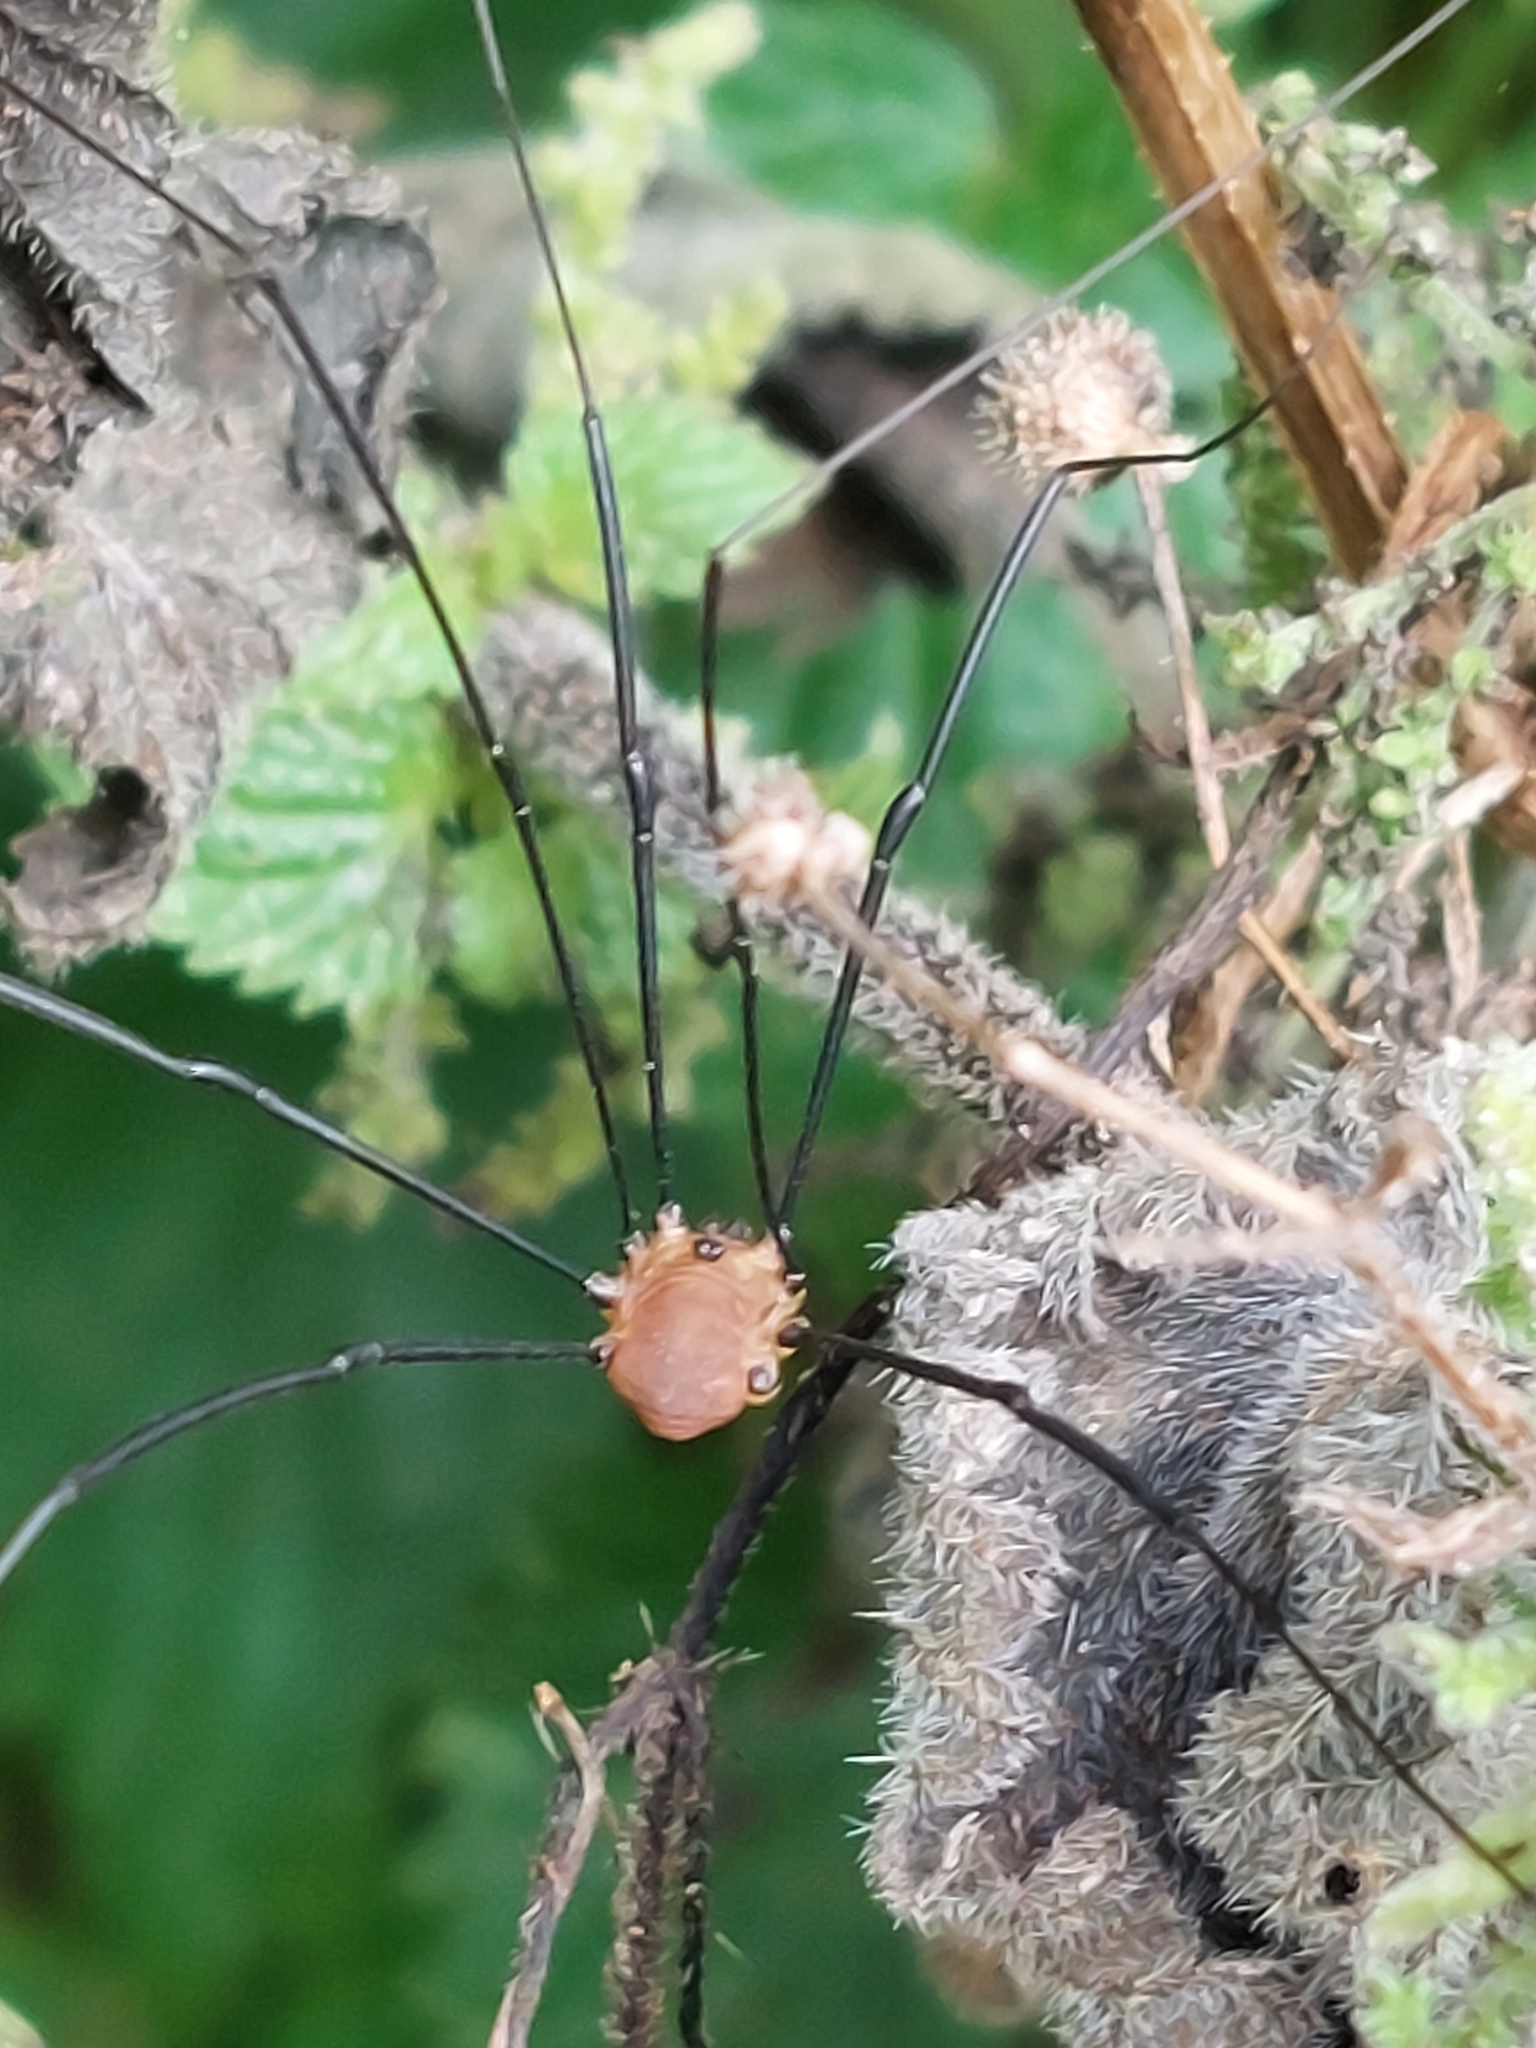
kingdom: Animalia
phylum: Arthropoda
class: Arachnida
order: Opiliones
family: Sclerosomatidae
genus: Leiobunum
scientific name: Leiobunum rotundum
